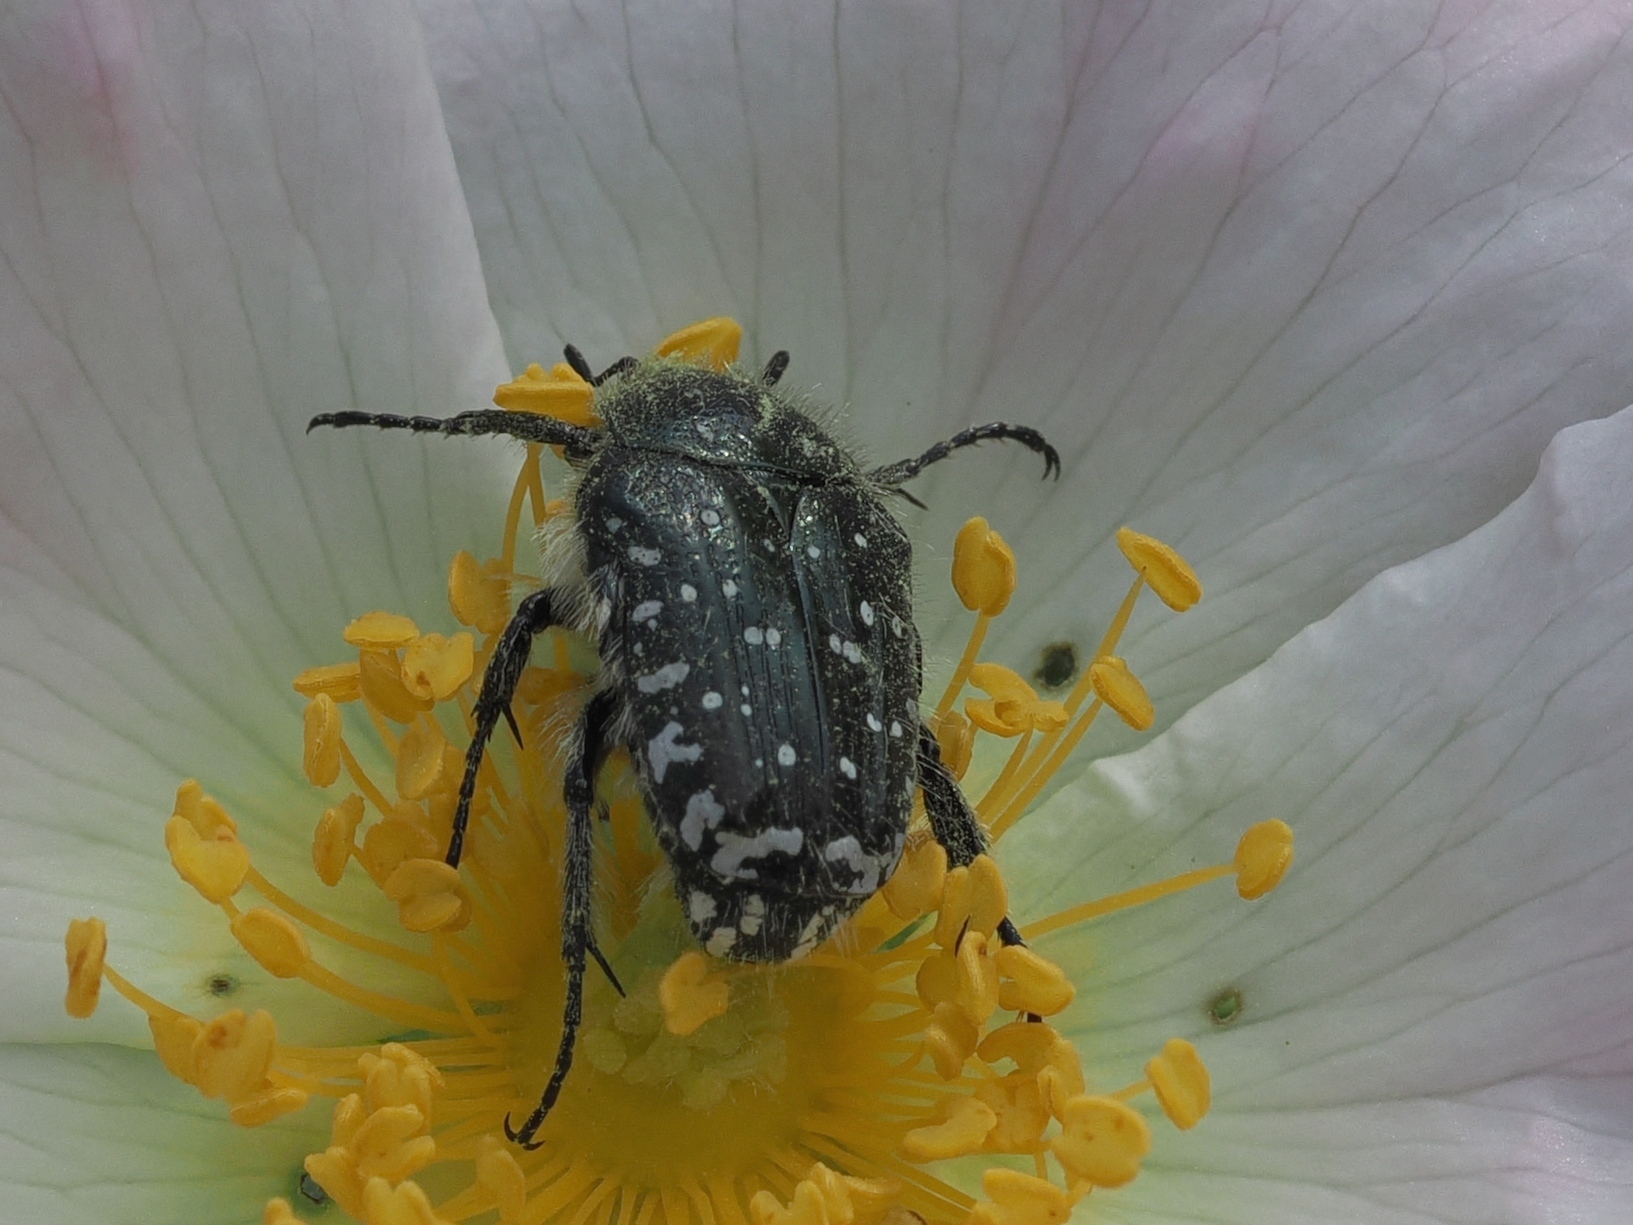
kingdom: Animalia
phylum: Arthropoda
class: Insecta
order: Coleoptera
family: Scarabaeidae
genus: Oxythyrea
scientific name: Oxythyrea funesta
